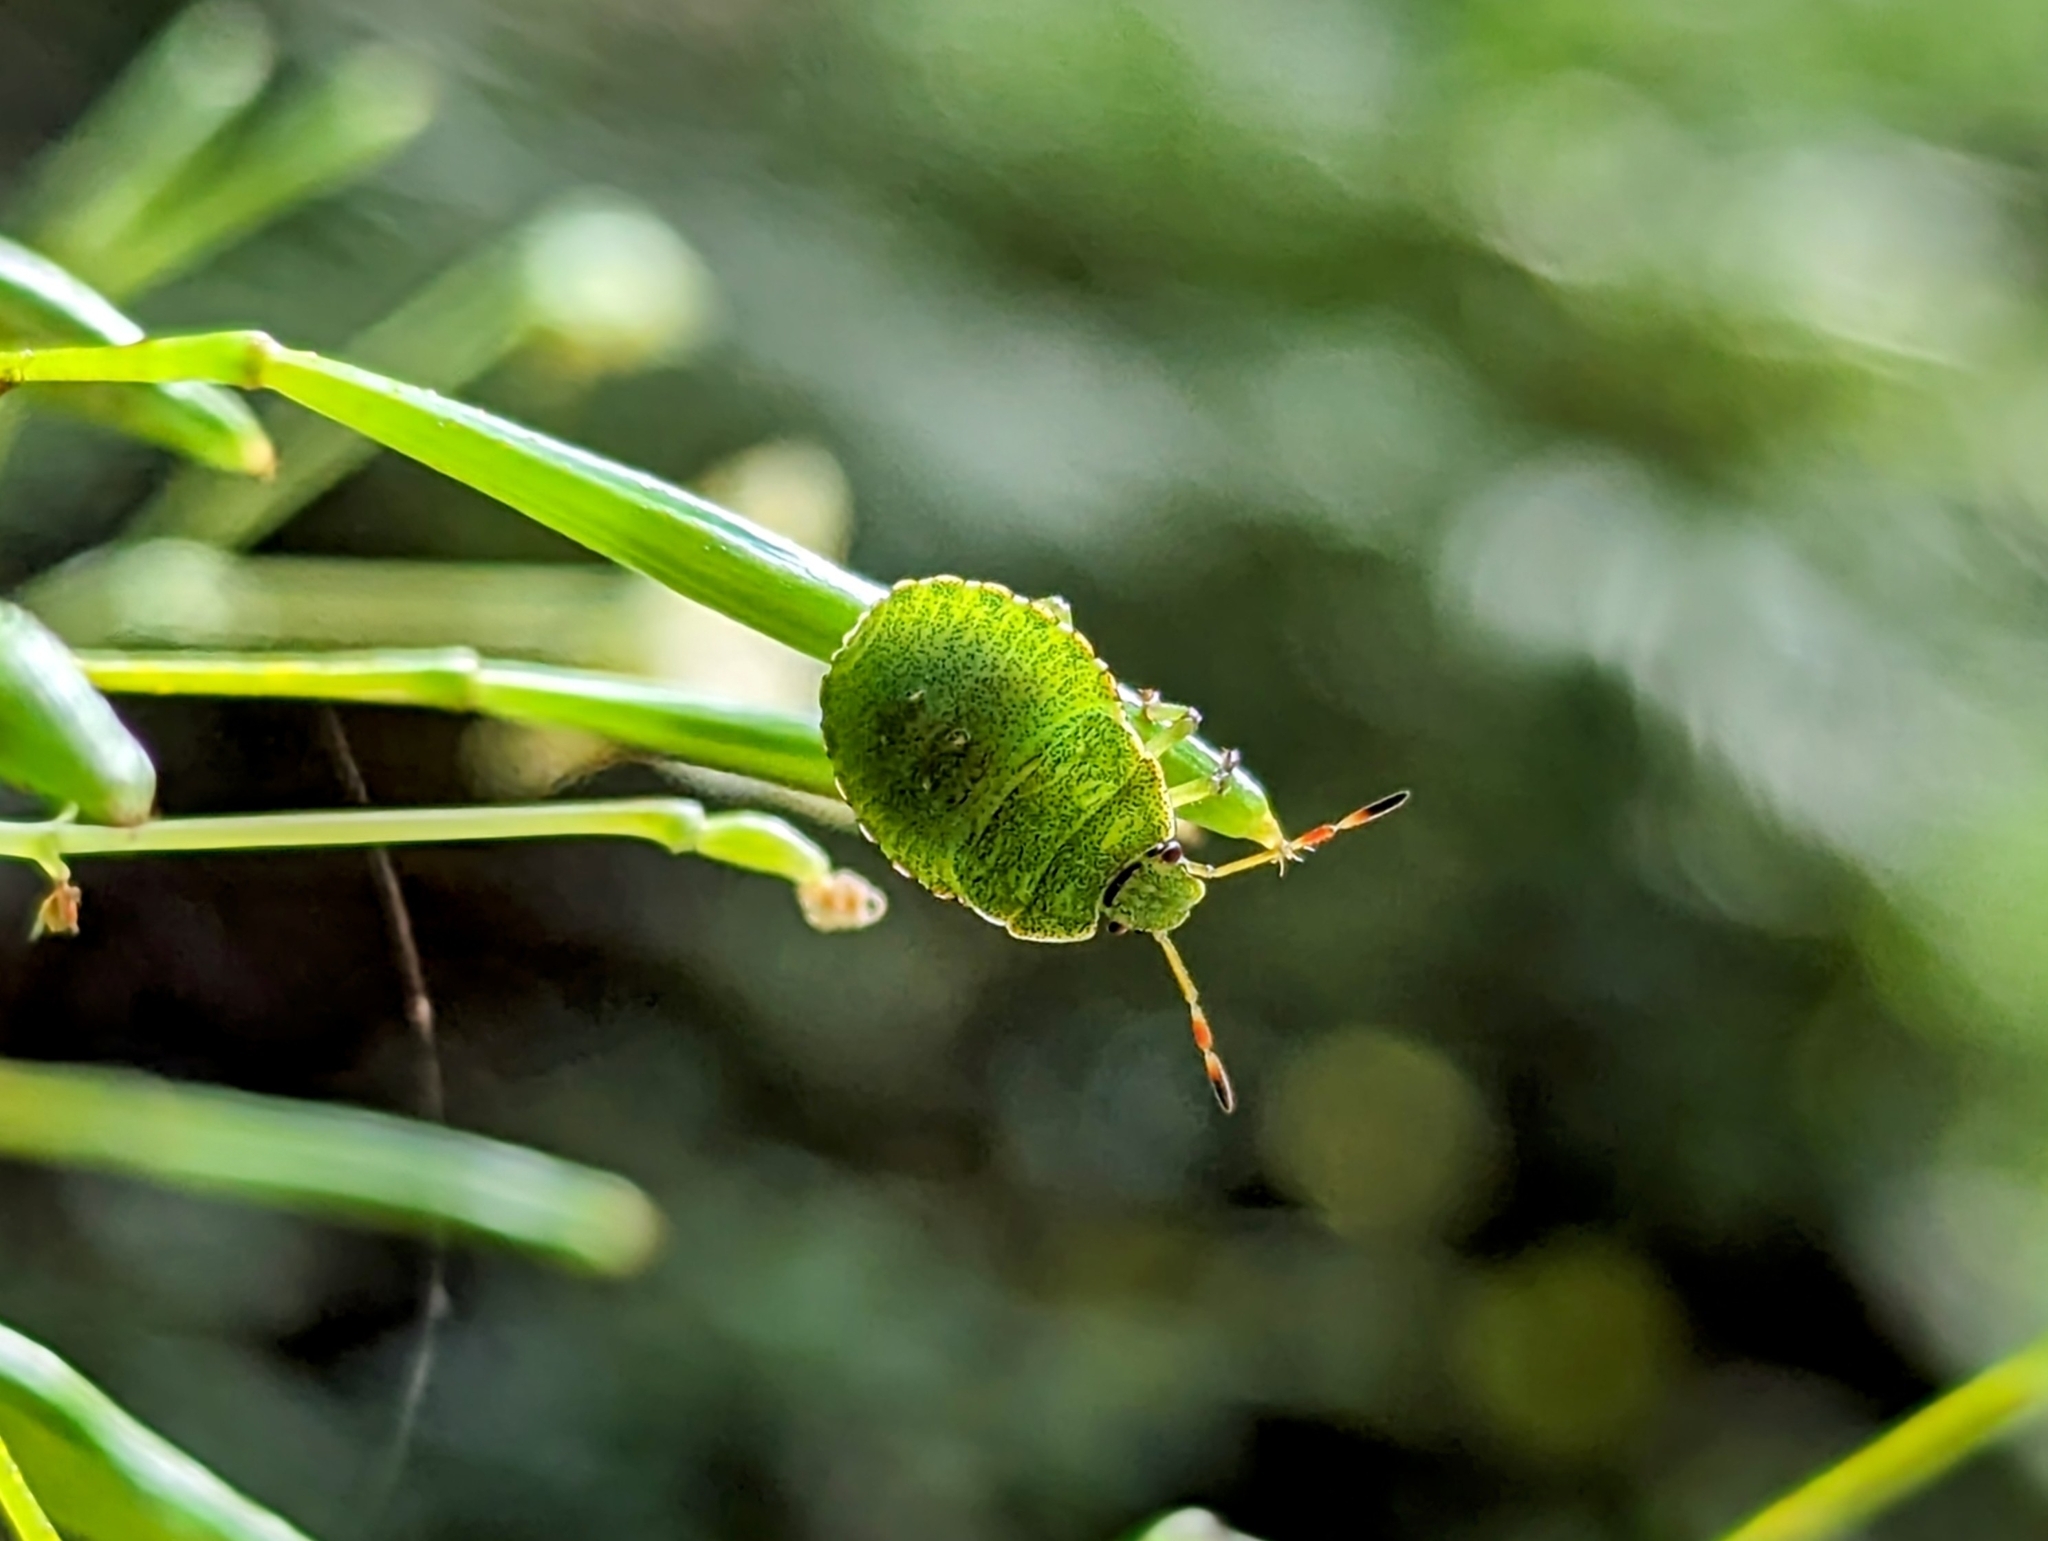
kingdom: Animalia
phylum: Arthropoda
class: Insecta
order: Hemiptera
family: Pentatomidae
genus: Palomena
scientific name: Palomena prasina
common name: Green shieldbug
